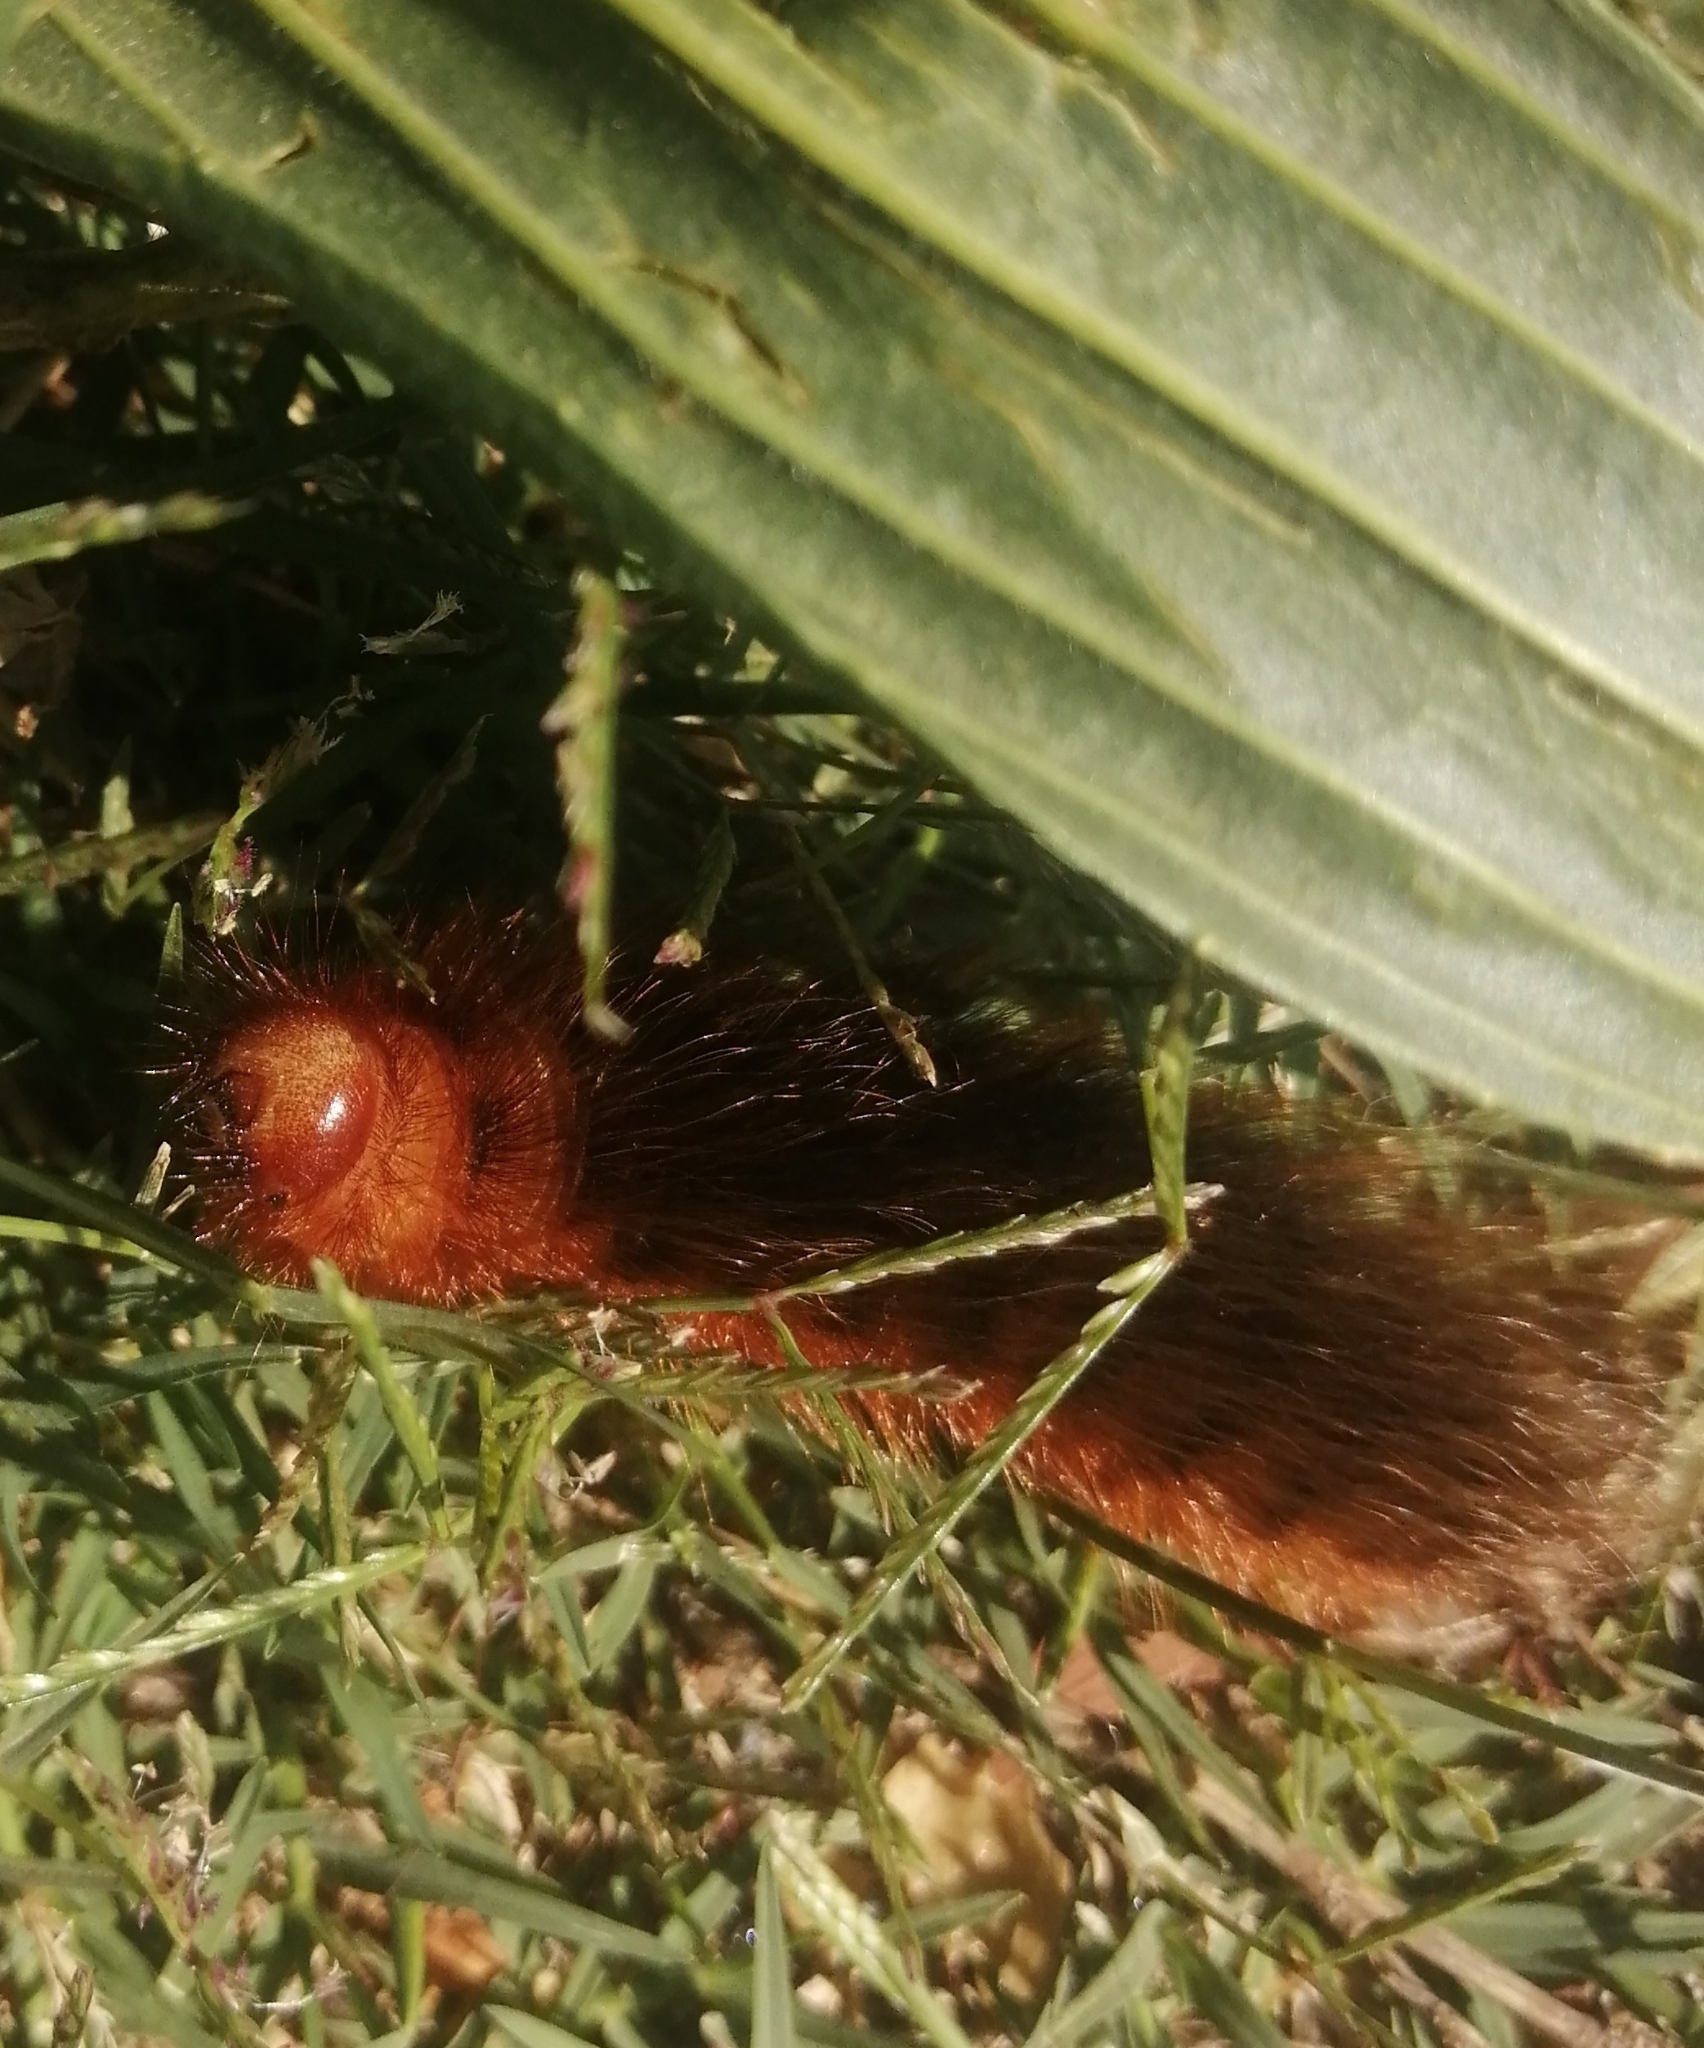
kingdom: Animalia
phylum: Arthropoda
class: Insecta
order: Lepidoptera
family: Eupterotidae
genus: Phyllalia
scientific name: Phyllalia patens
